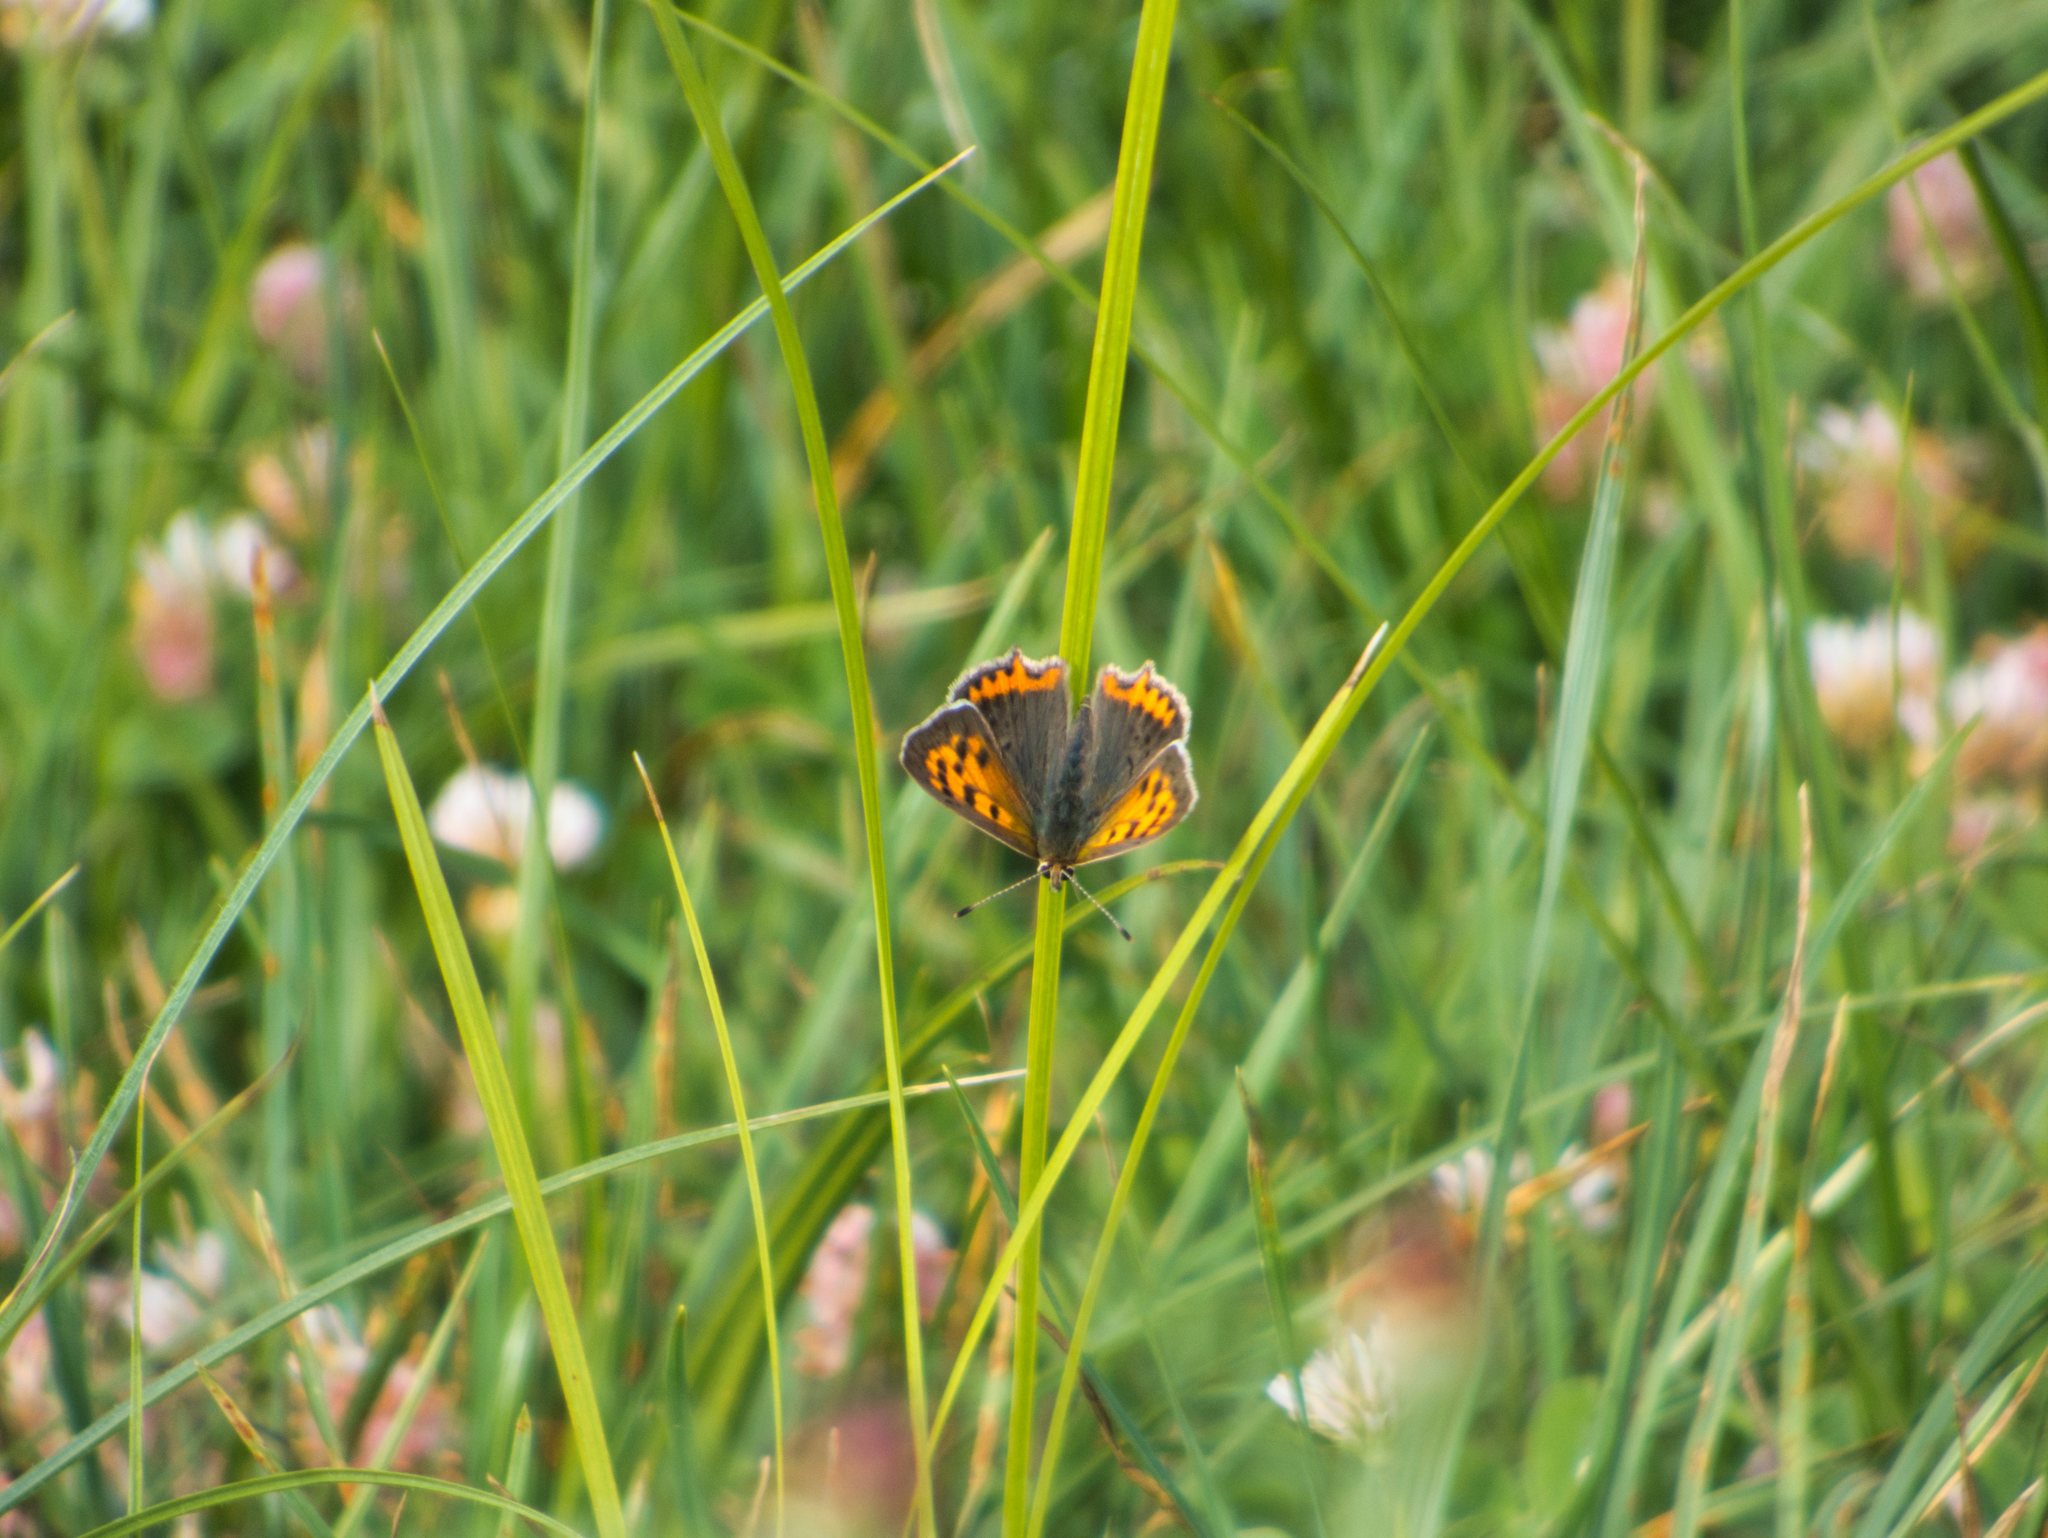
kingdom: Animalia
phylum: Arthropoda
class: Insecta
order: Lepidoptera
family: Lycaenidae
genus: Lycaena
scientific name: Lycaena phlaeas
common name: Small copper
